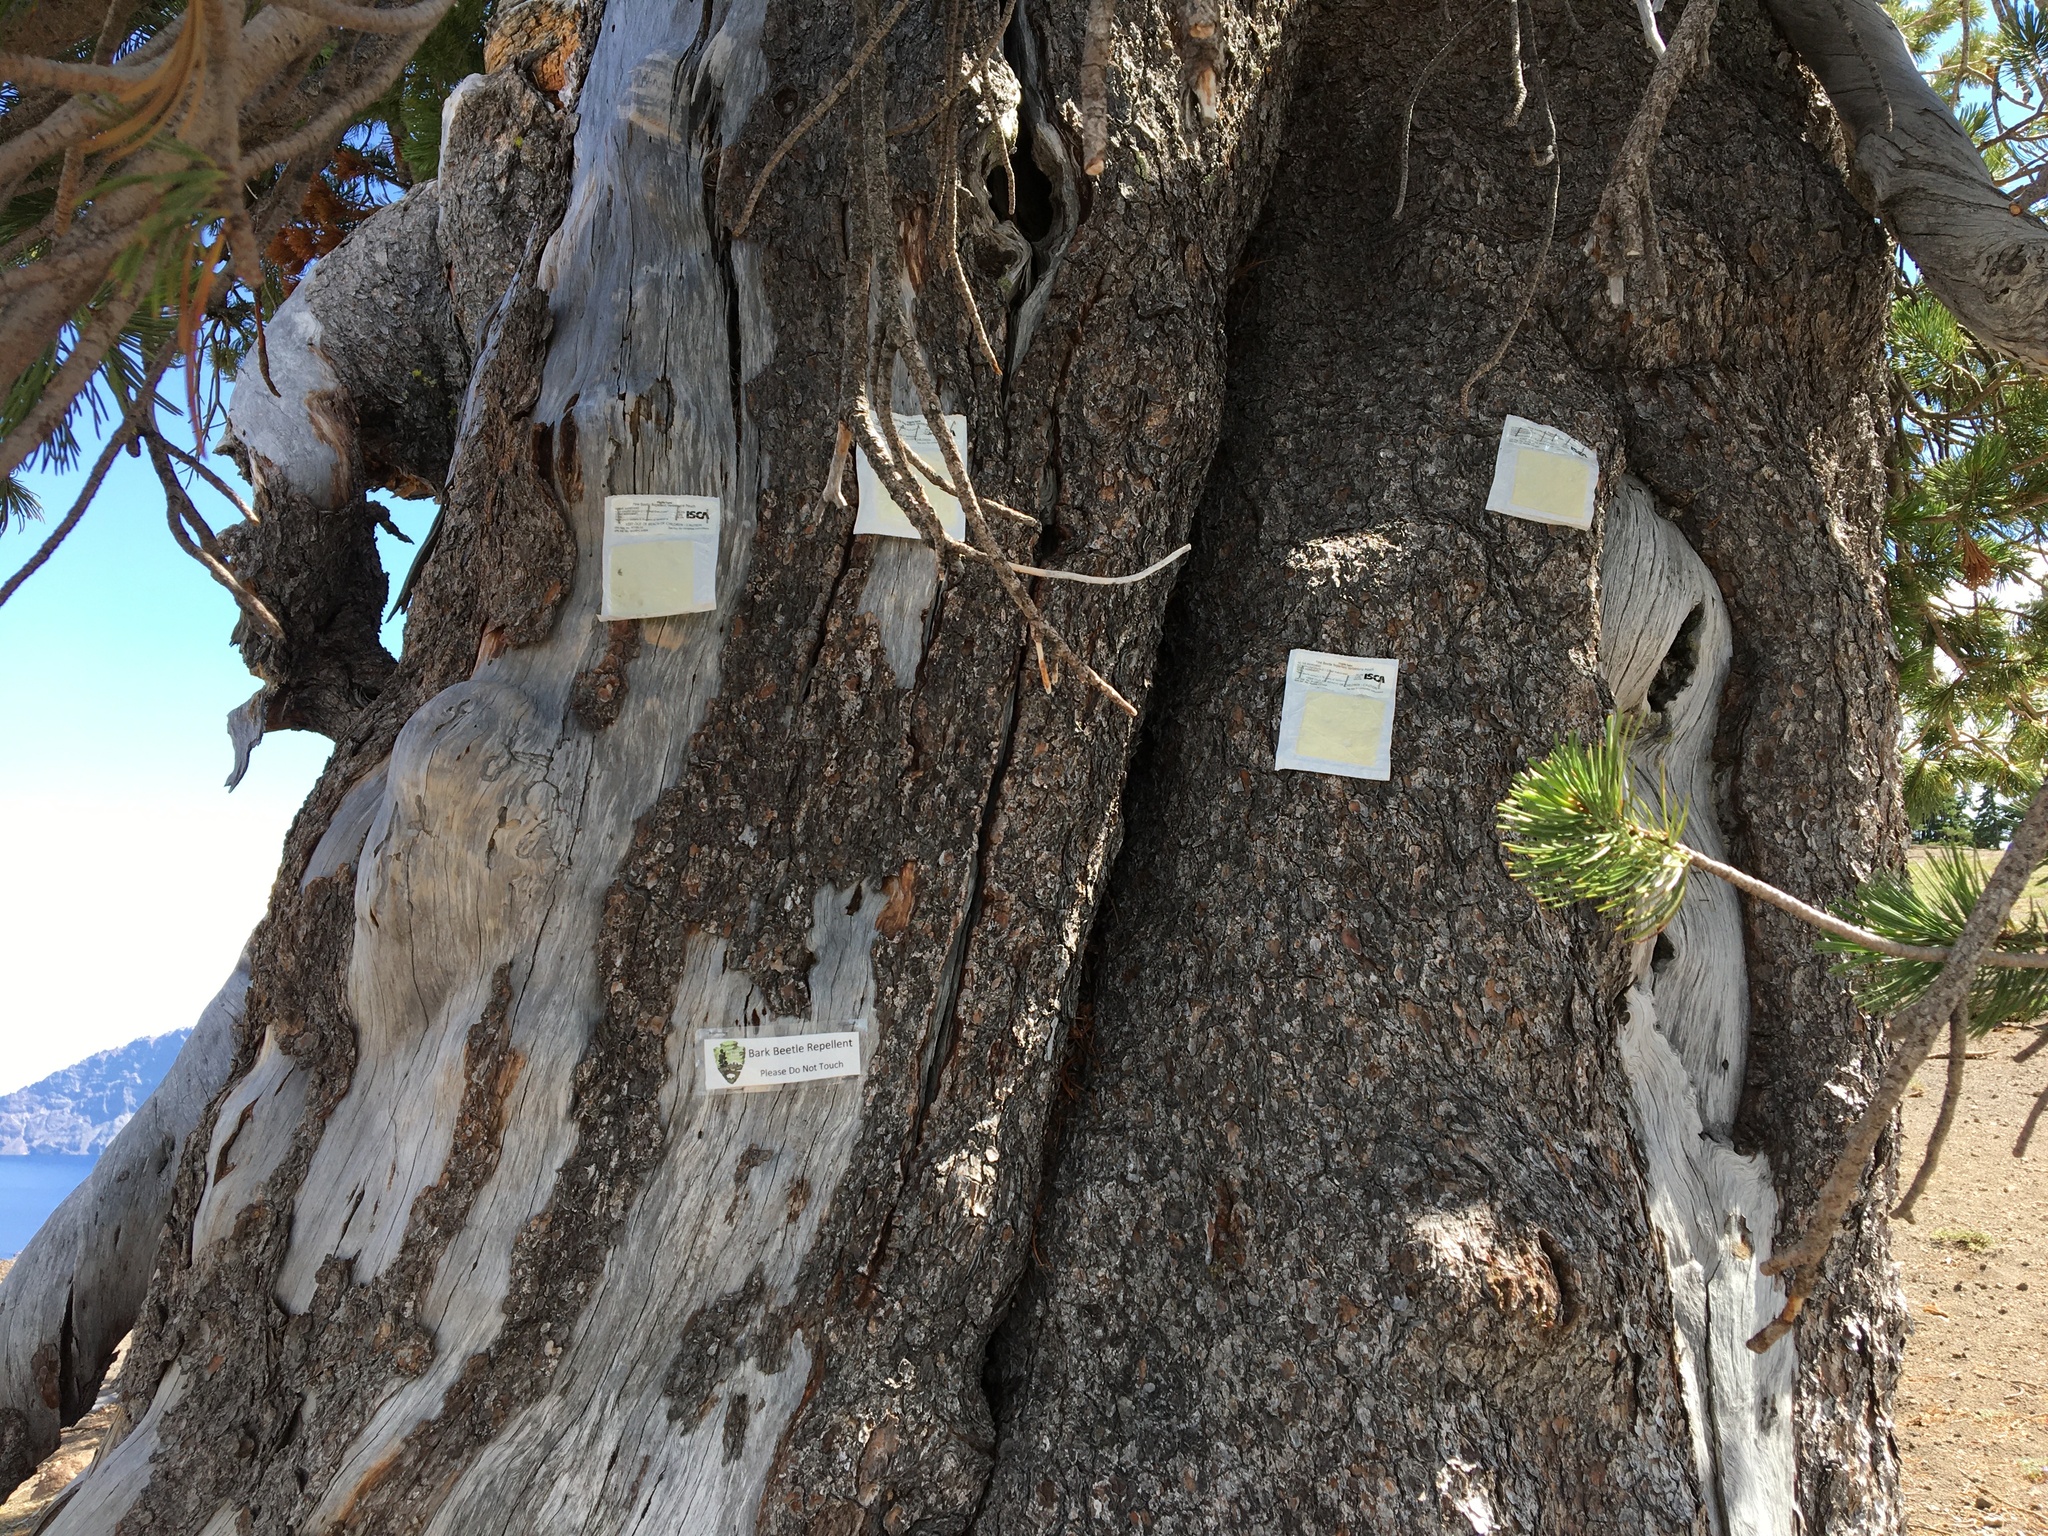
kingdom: Plantae
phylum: Tracheophyta
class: Pinopsida
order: Pinales
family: Pinaceae
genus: Pinus
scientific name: Pinus albicaulis
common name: Whitebark pine
